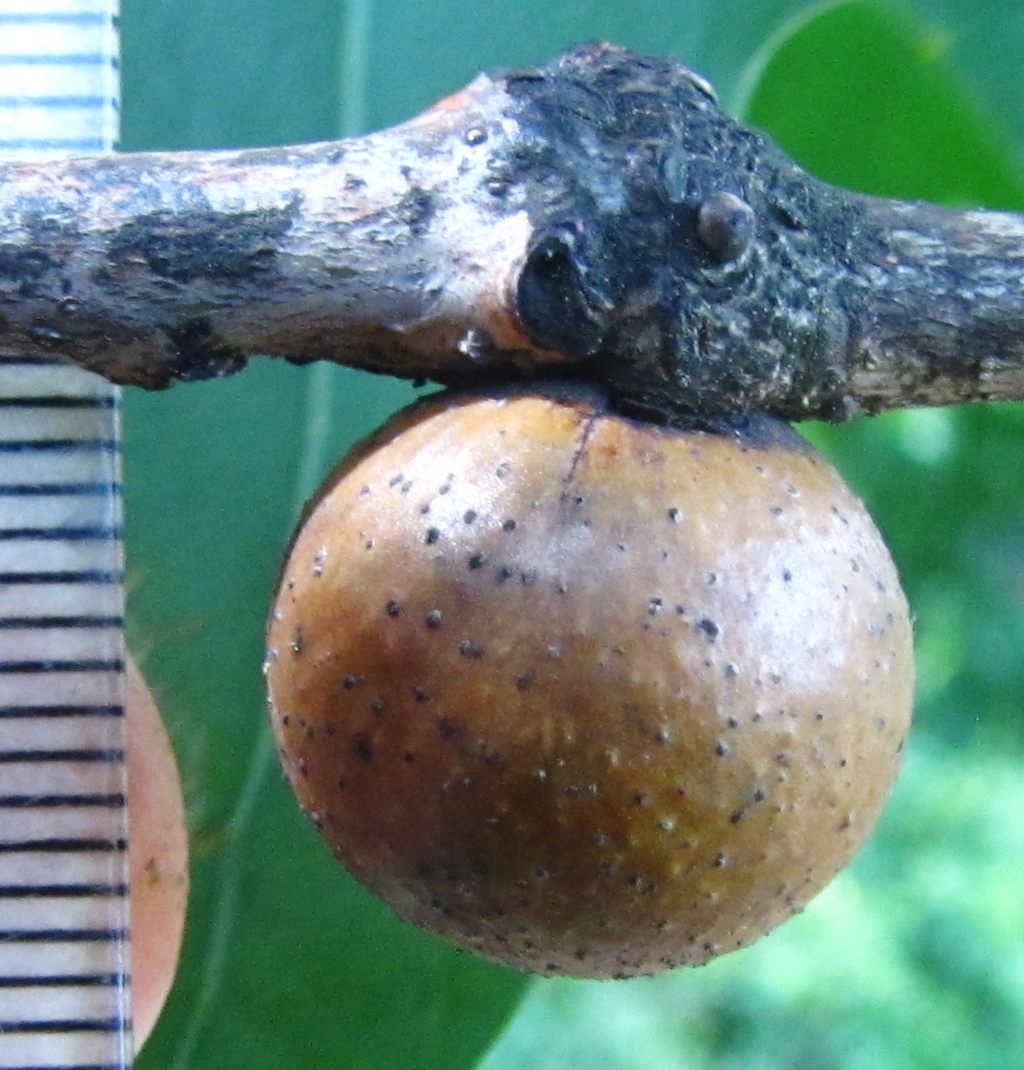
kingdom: Animalia
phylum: Arthropoda
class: Insecta
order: Hymenoptera
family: Cynipidae
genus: Disholcaspis
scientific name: Disholcaspis quercusglobulus
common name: Round bullet gall wasp
